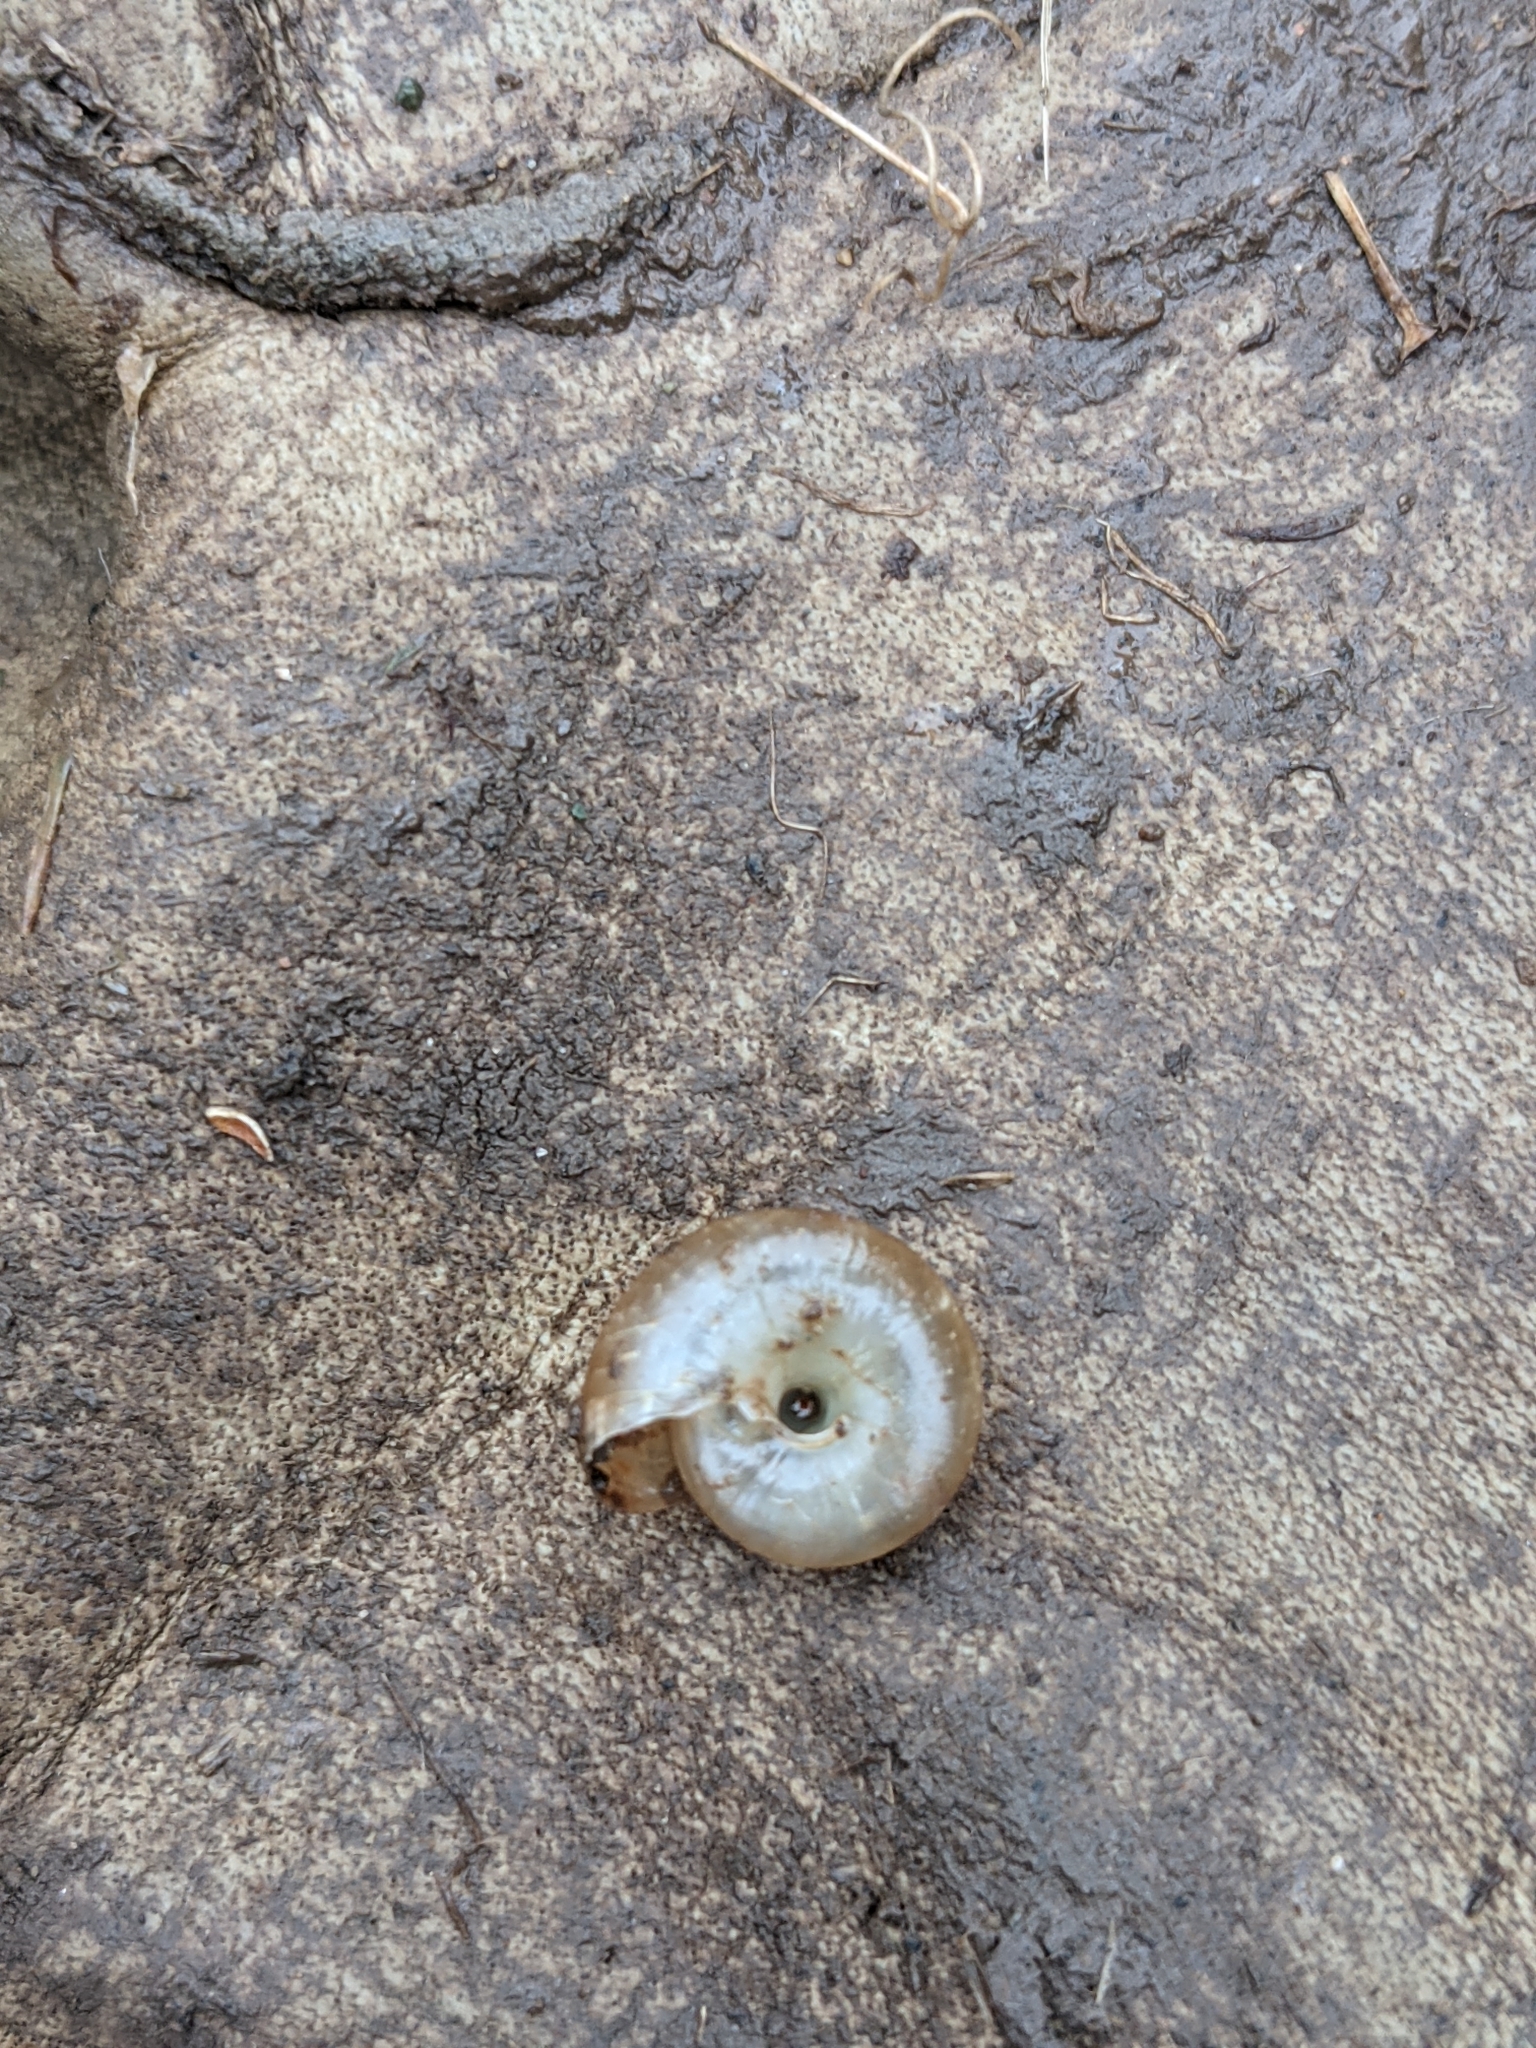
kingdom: Animalia
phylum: Mollusca
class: Gastropoda
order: Stylommatophora
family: Oxychilidae
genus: Oxychilus
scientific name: Oxychilus
